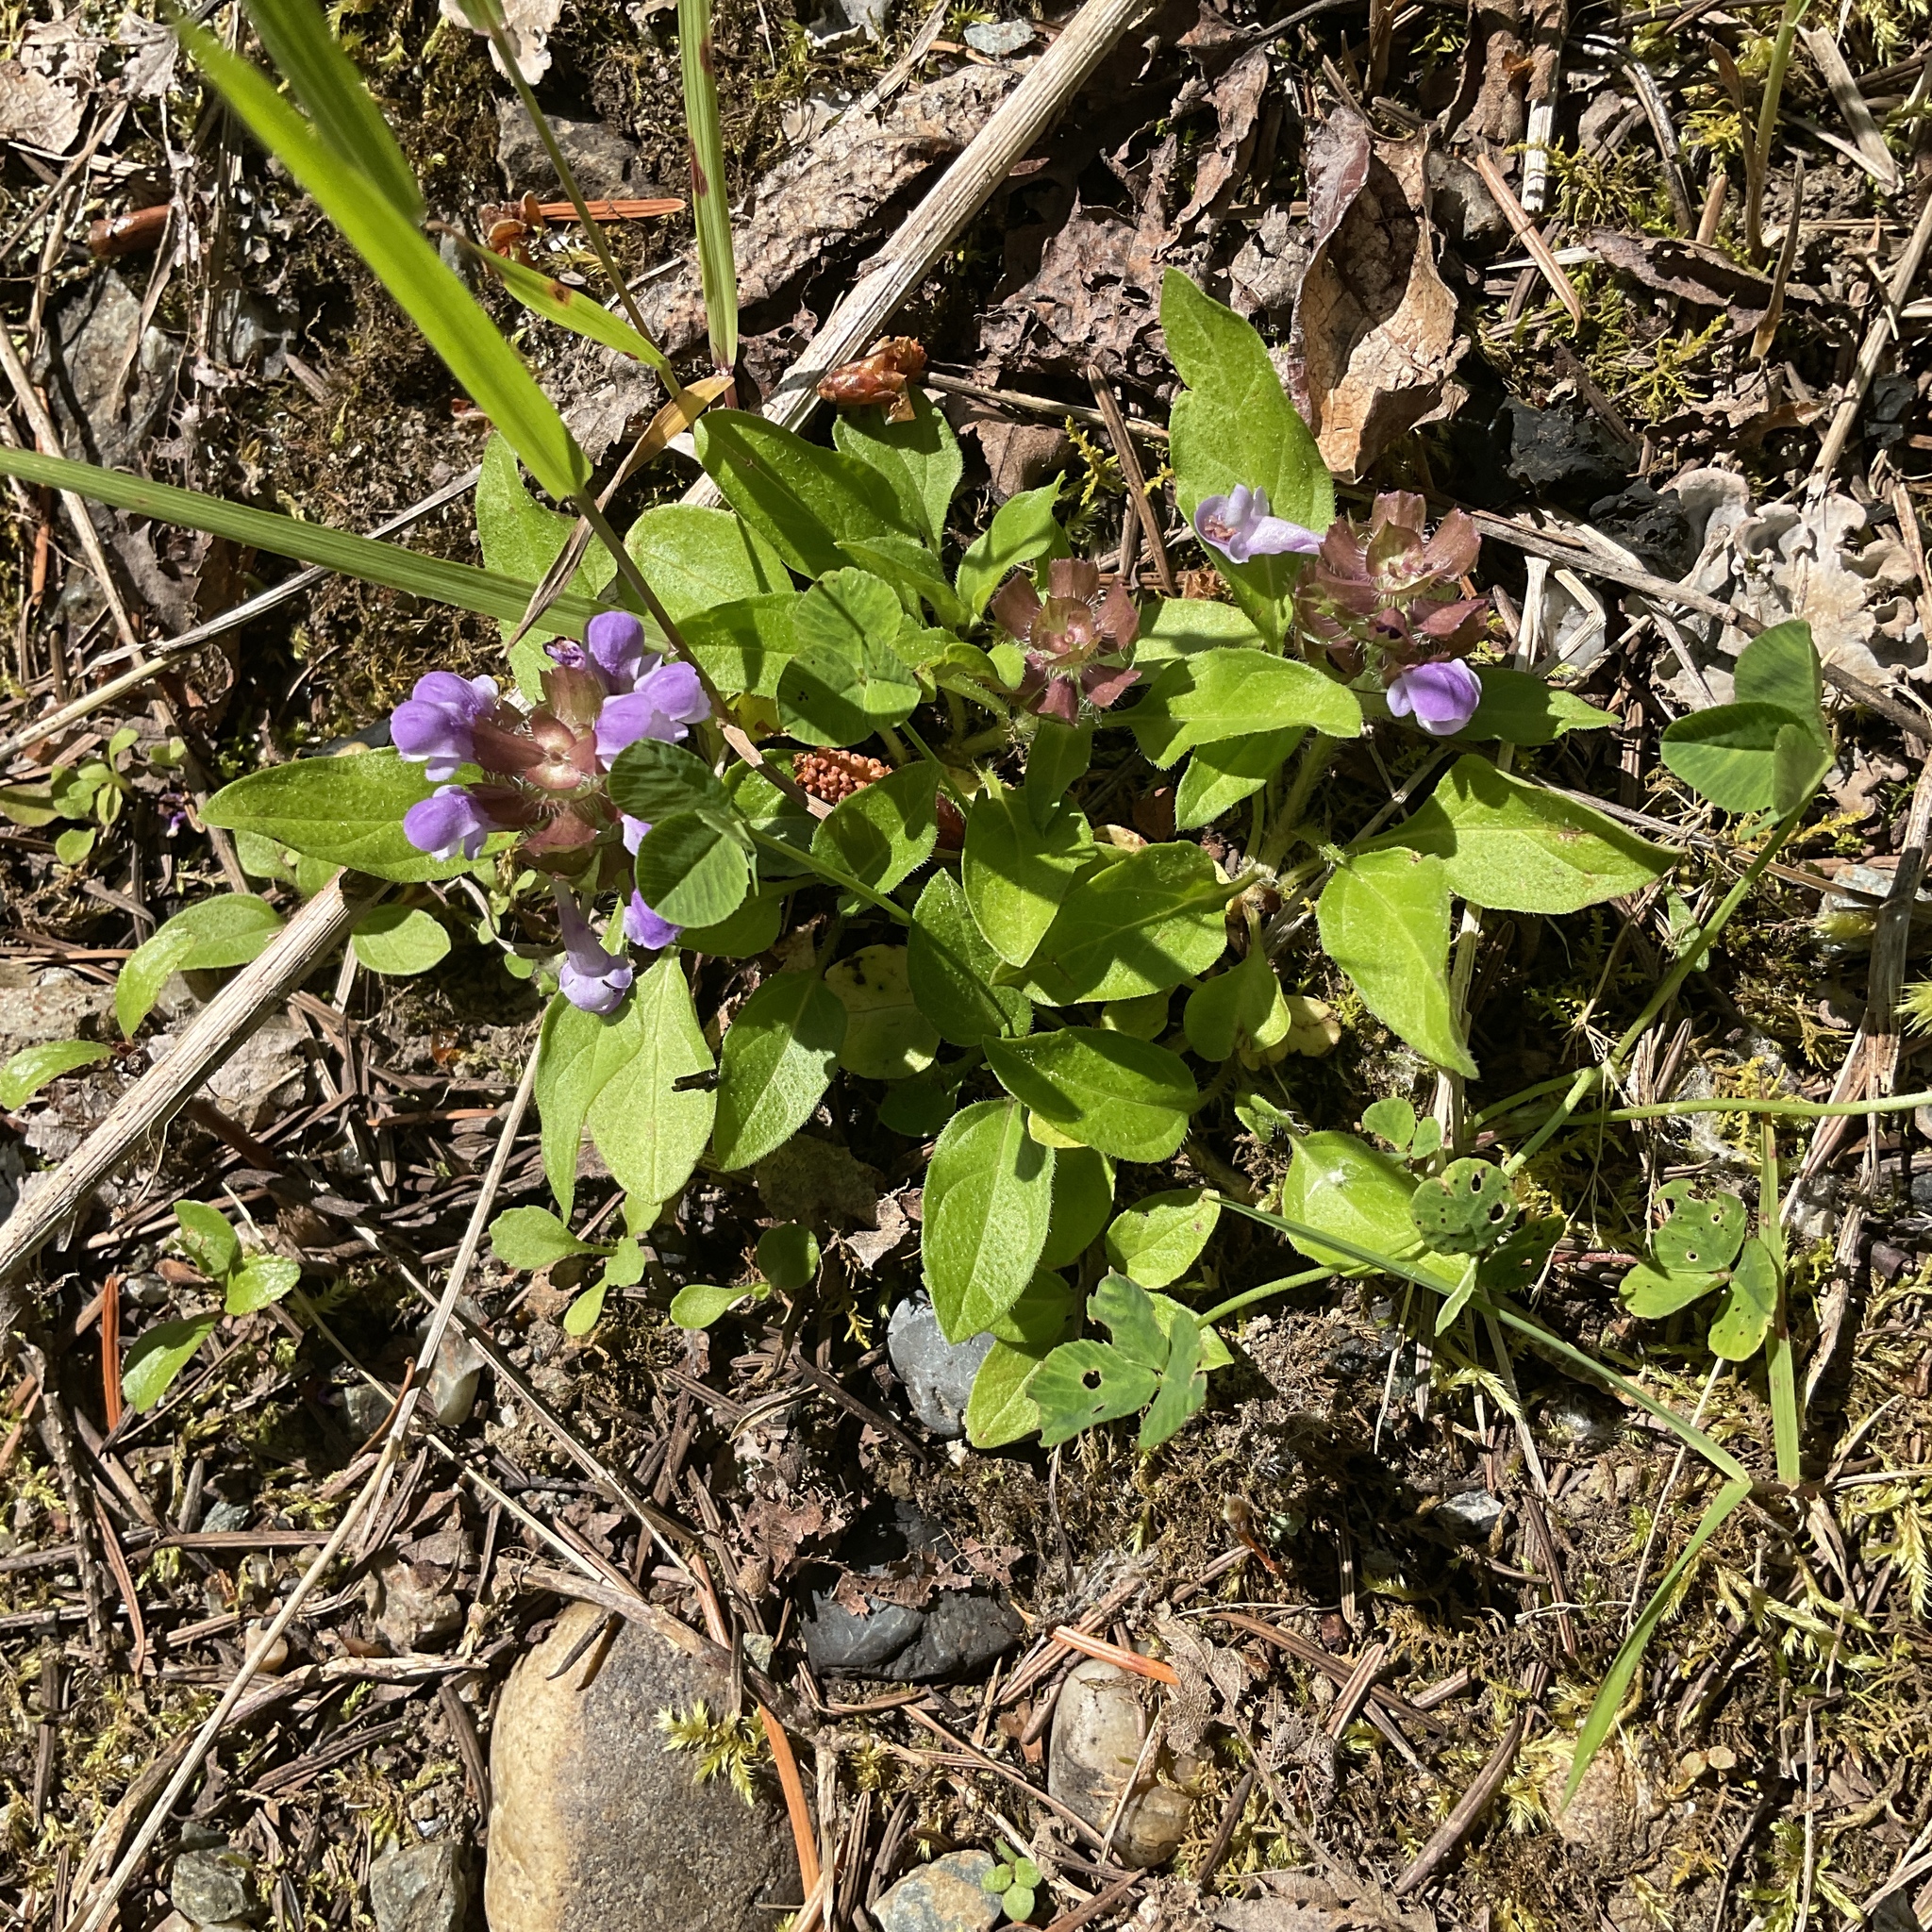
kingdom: Plantae
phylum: Tracheophyta
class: Magnoliopsida
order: Lamiales
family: Lamiaceae
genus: Prunella
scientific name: Prunella vulgaris
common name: Heal-all
